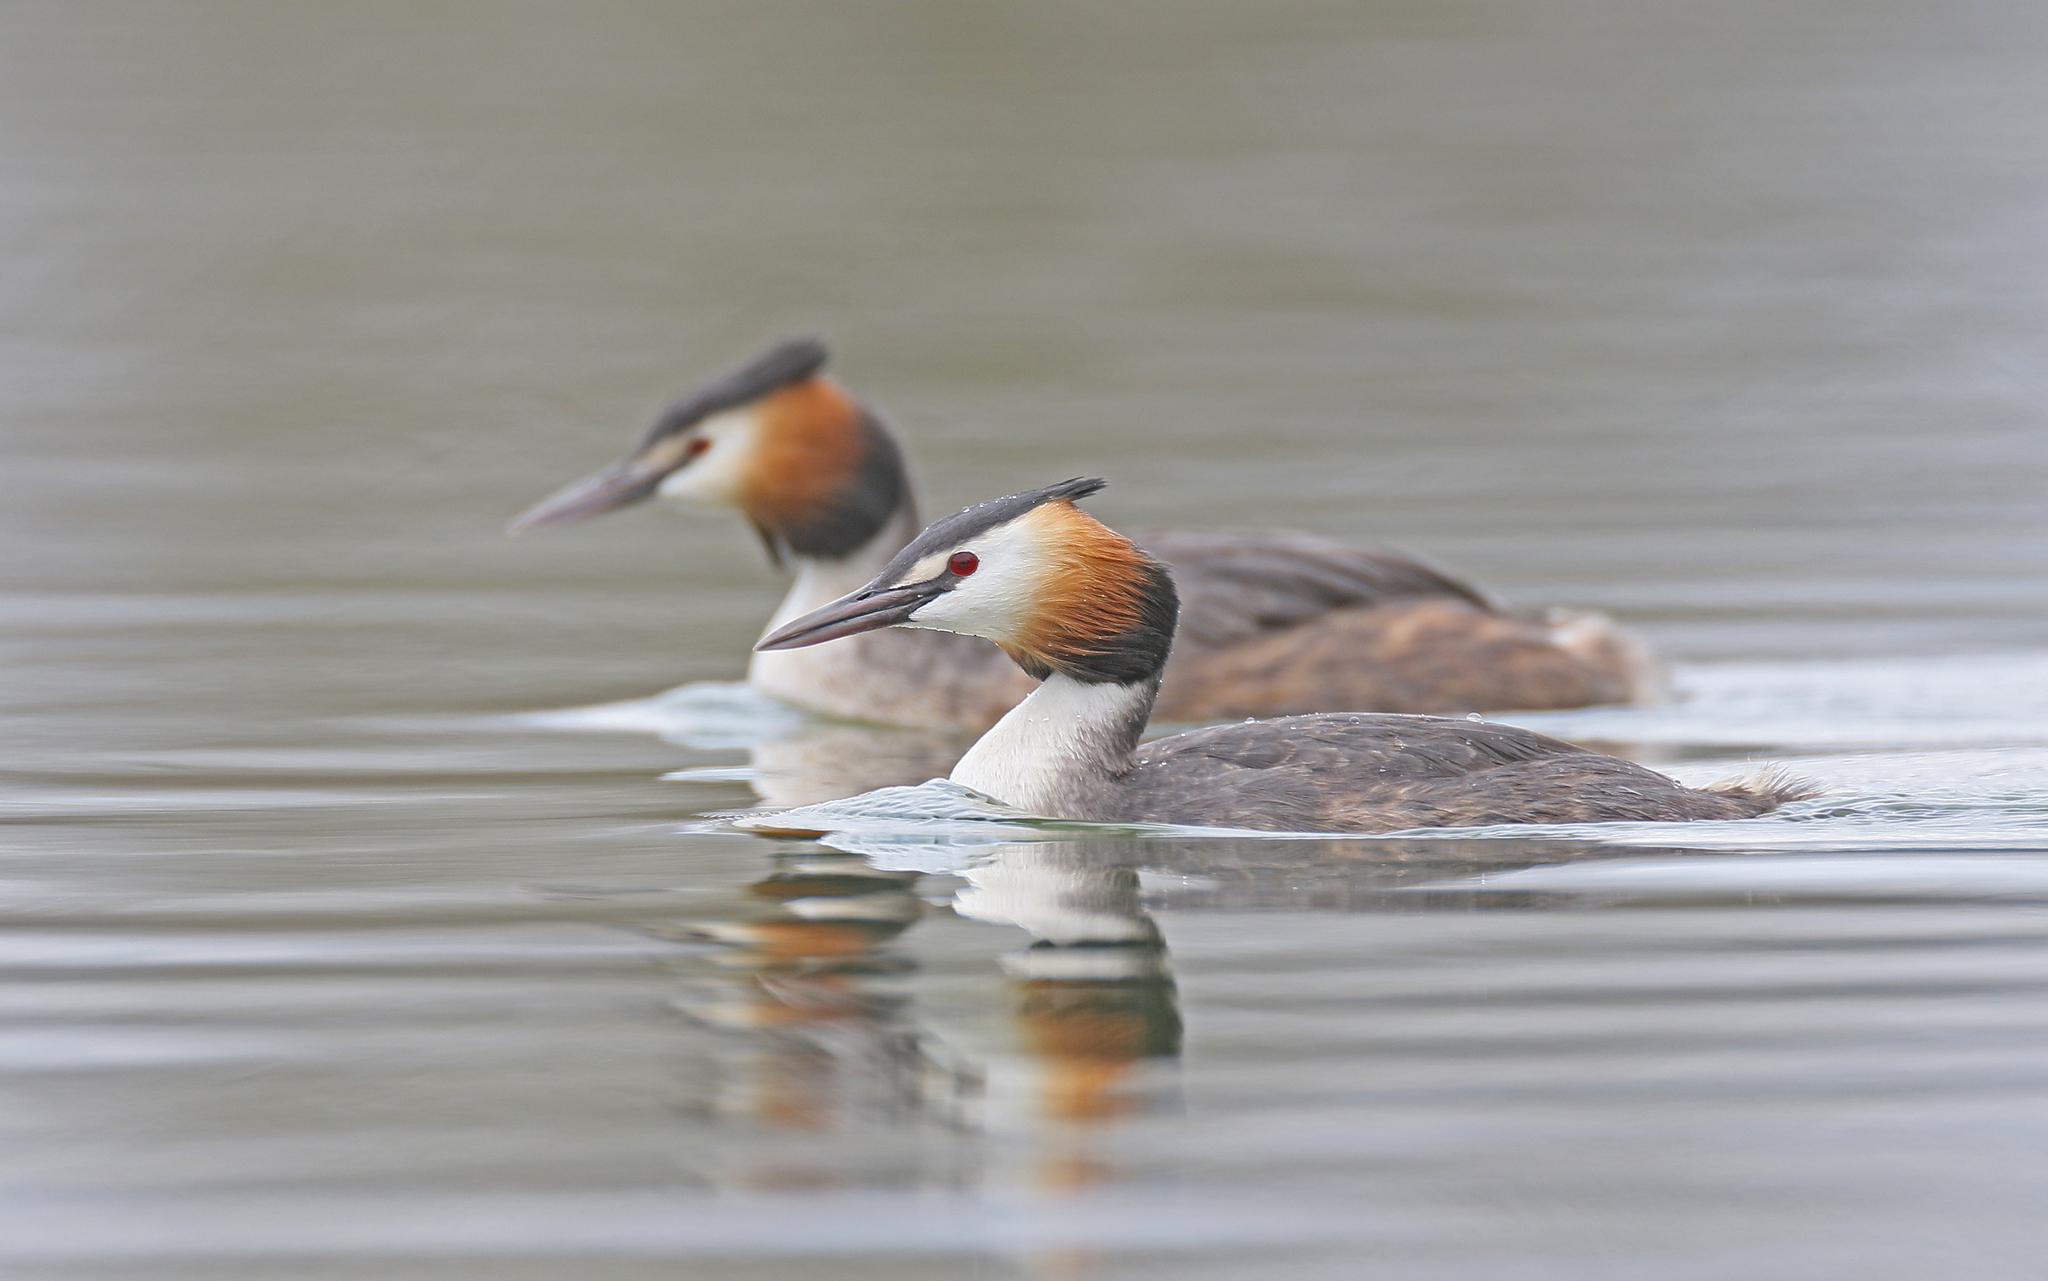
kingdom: Animalia
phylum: Chordata
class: Aves
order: Podicipediformes
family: Podicipedidae
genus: Podiceps
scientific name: Podiceps cristatus
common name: Great crested grebe
